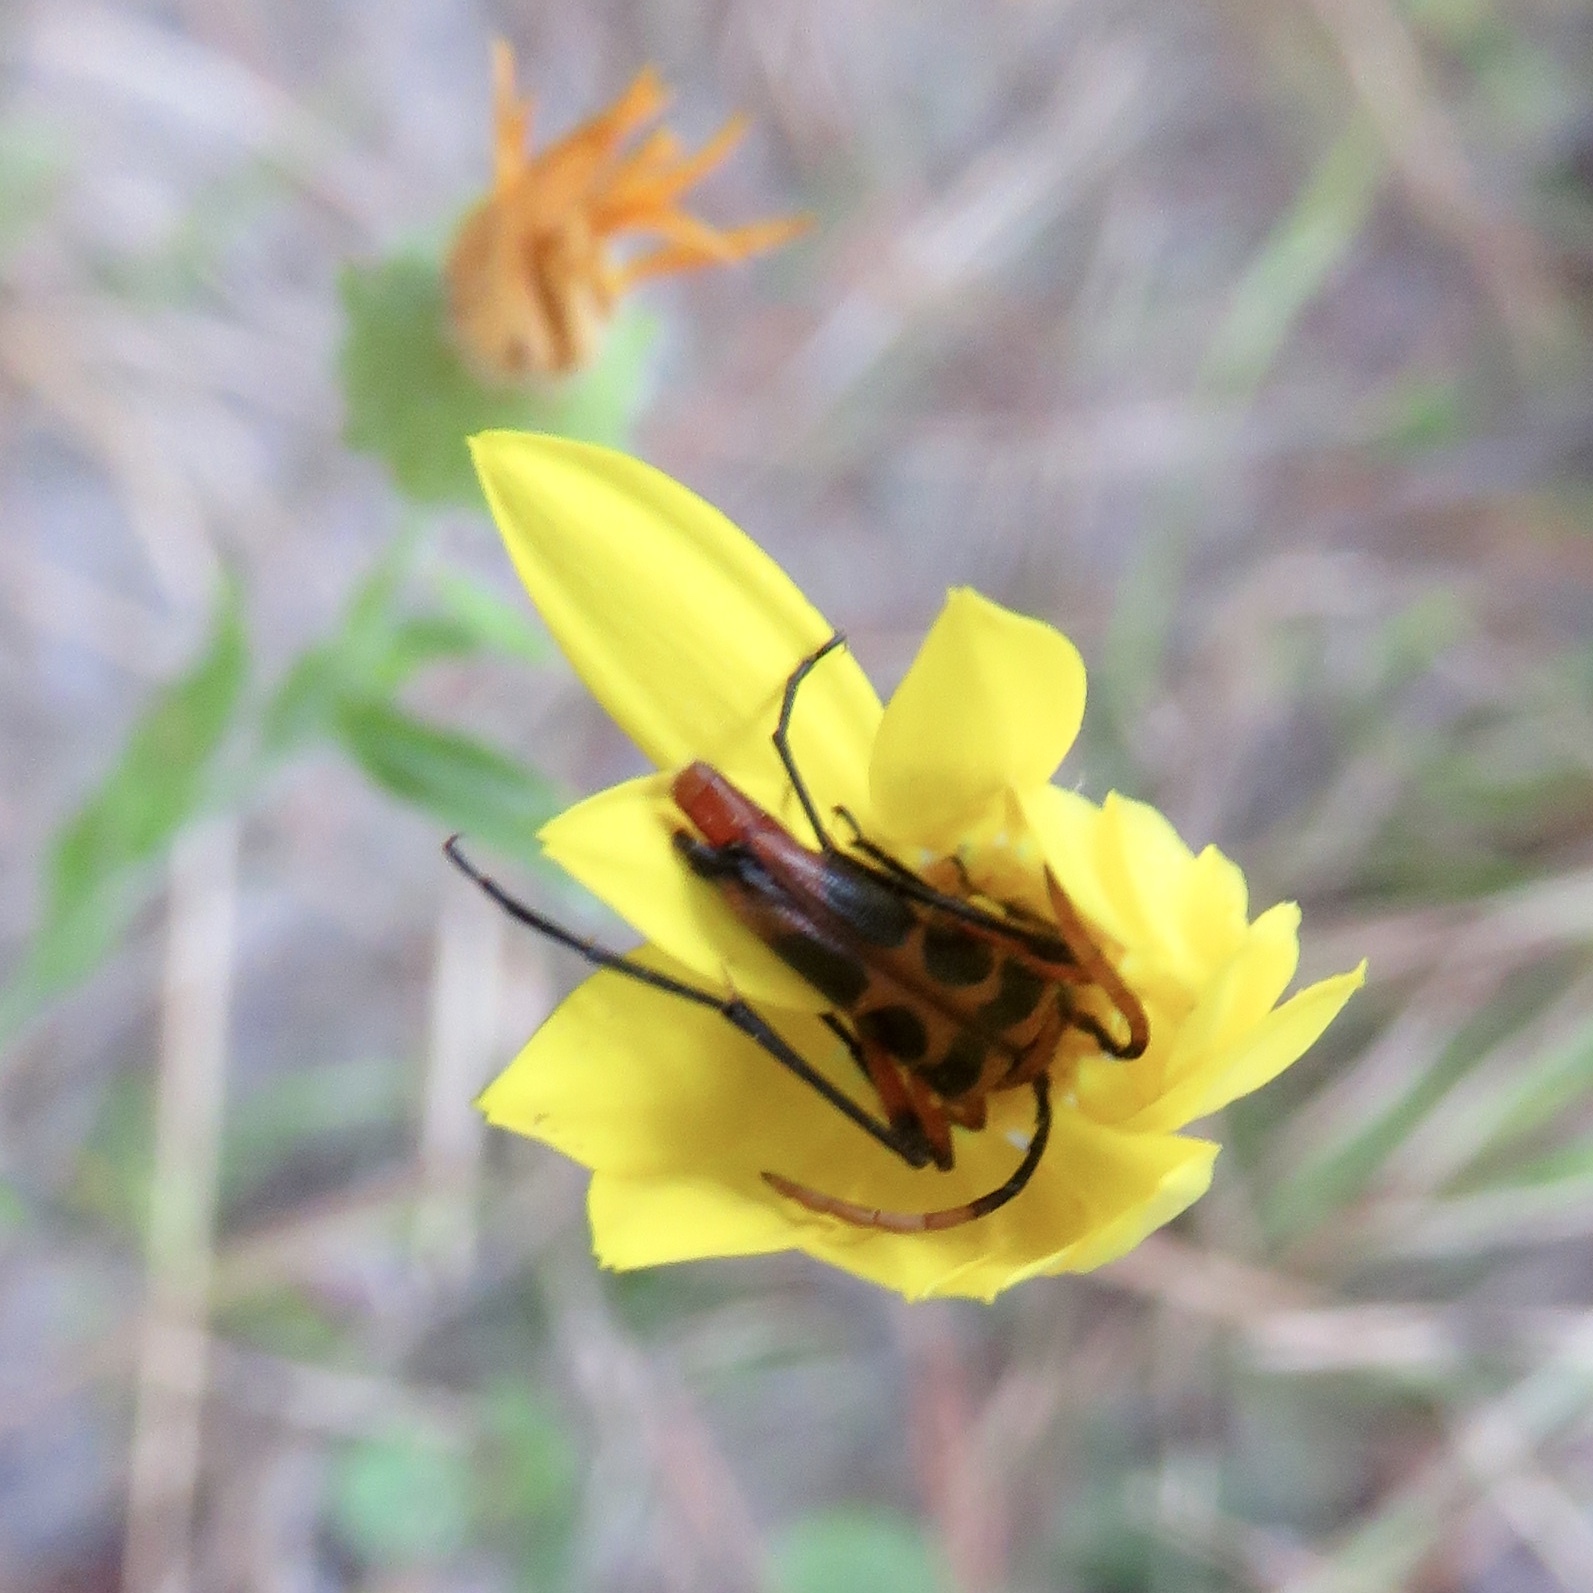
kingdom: Animalia
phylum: Arthropoda
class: Insecta
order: Coleoptera
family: Cerambycidae
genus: Strangalia
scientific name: Strangalia sexnotata
